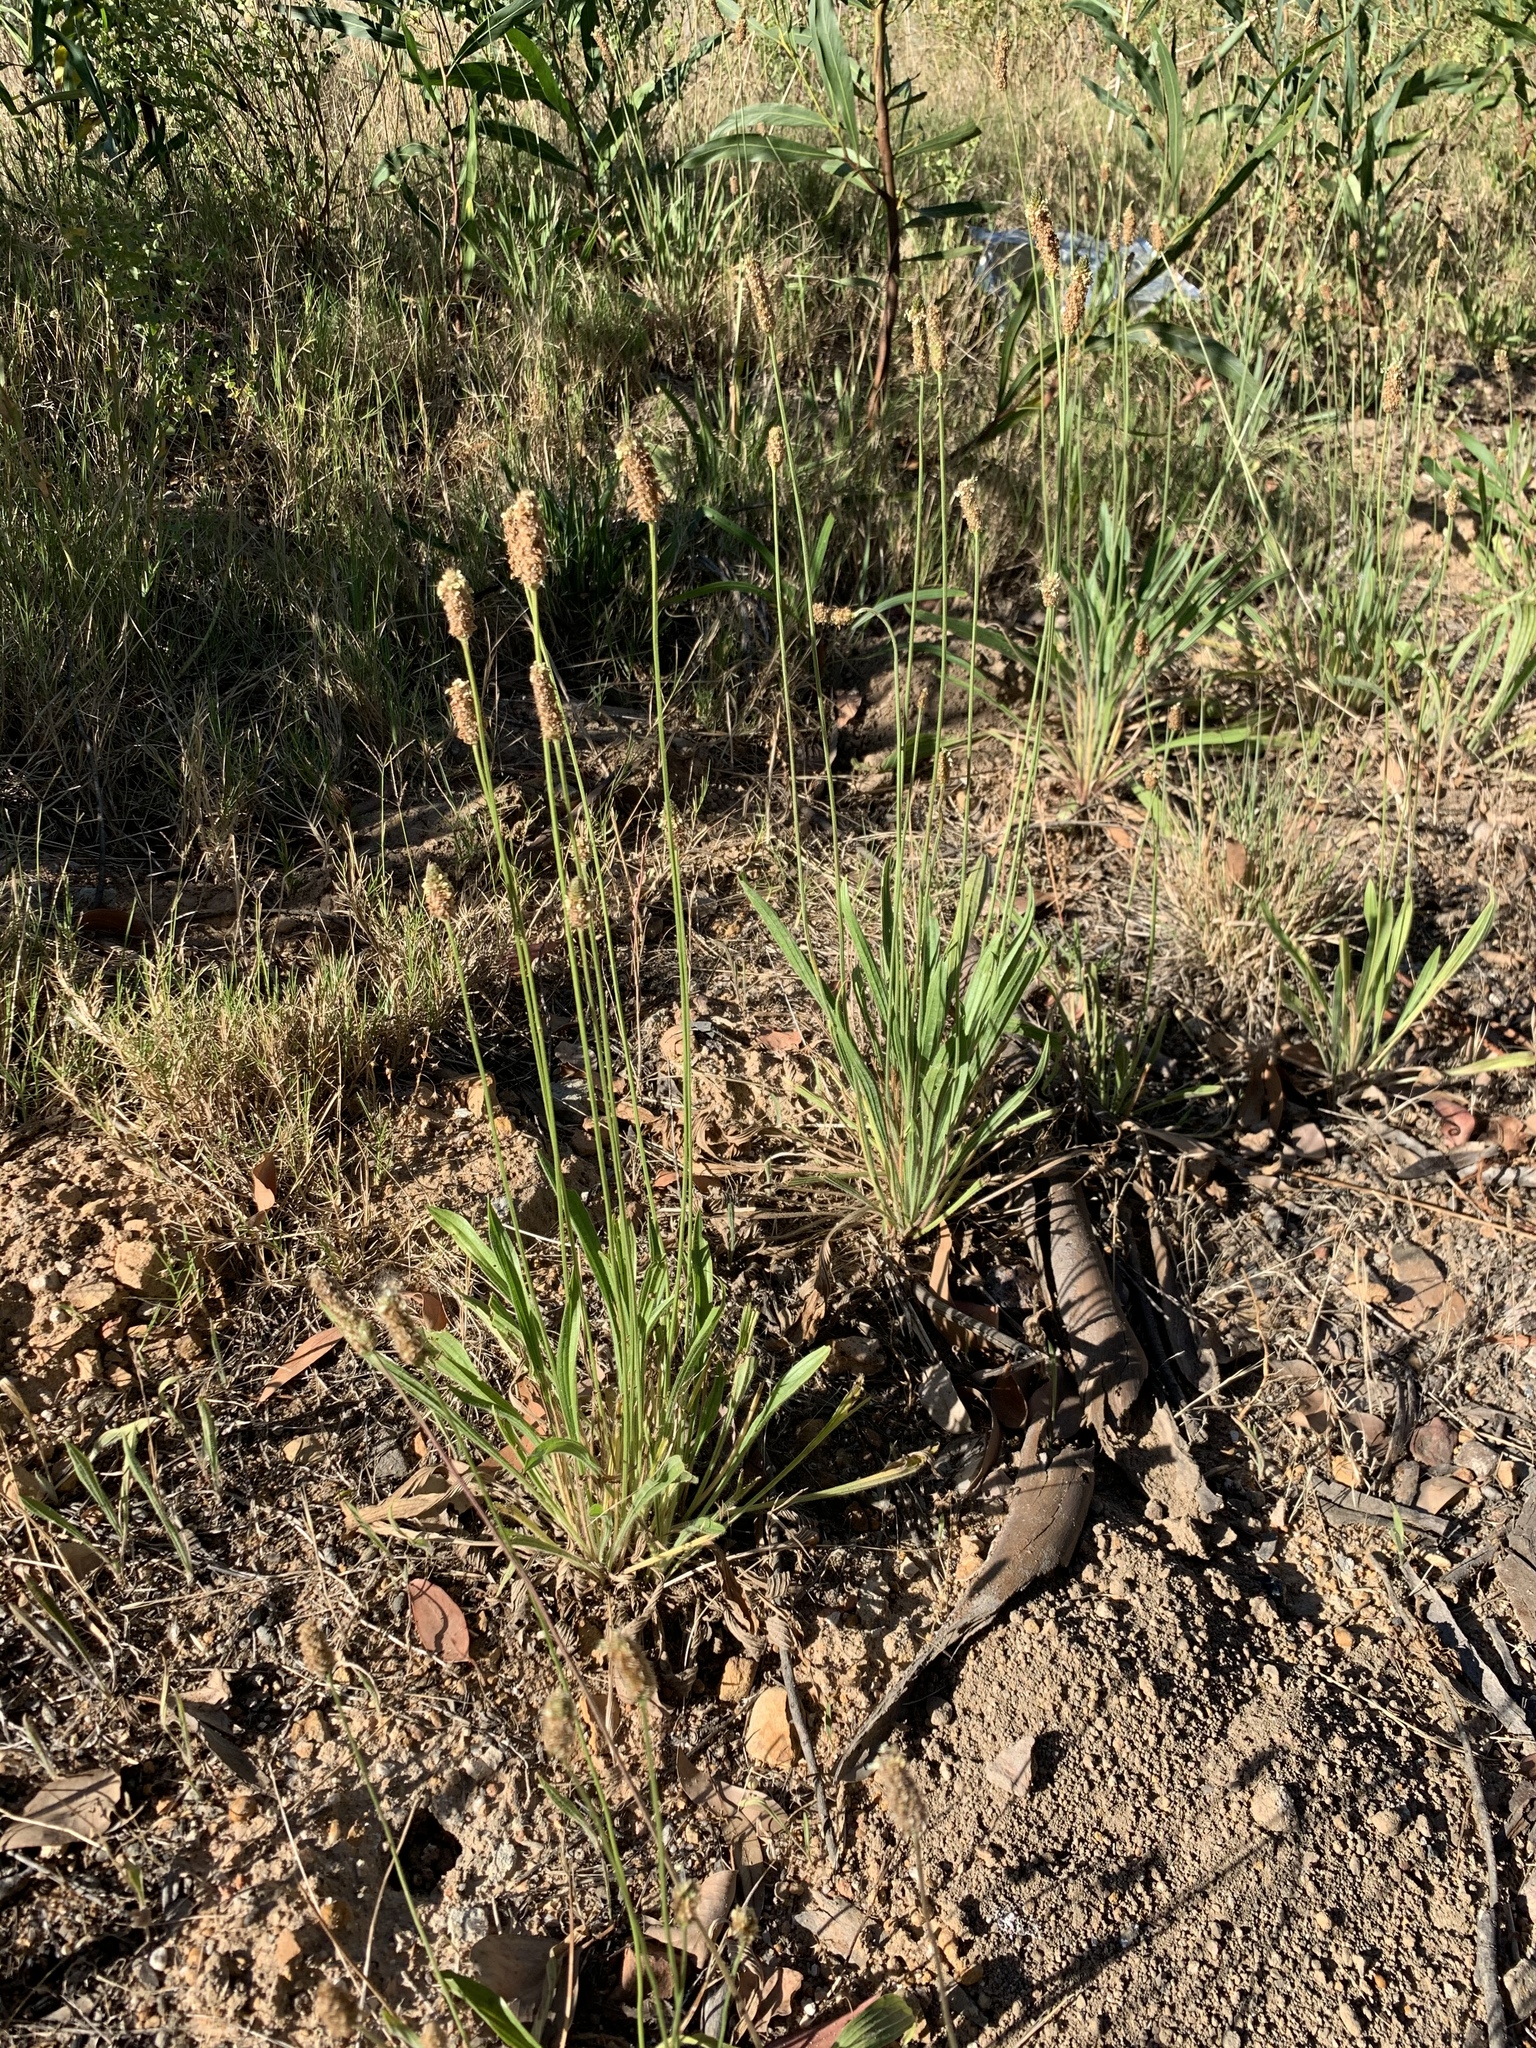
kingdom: Plantae
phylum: Tracheophyta
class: Magnoliopsida
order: Lamiales
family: Plantaginaceae
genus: Plantago
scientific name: Plantago lanceolata
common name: Ribwort plantain
